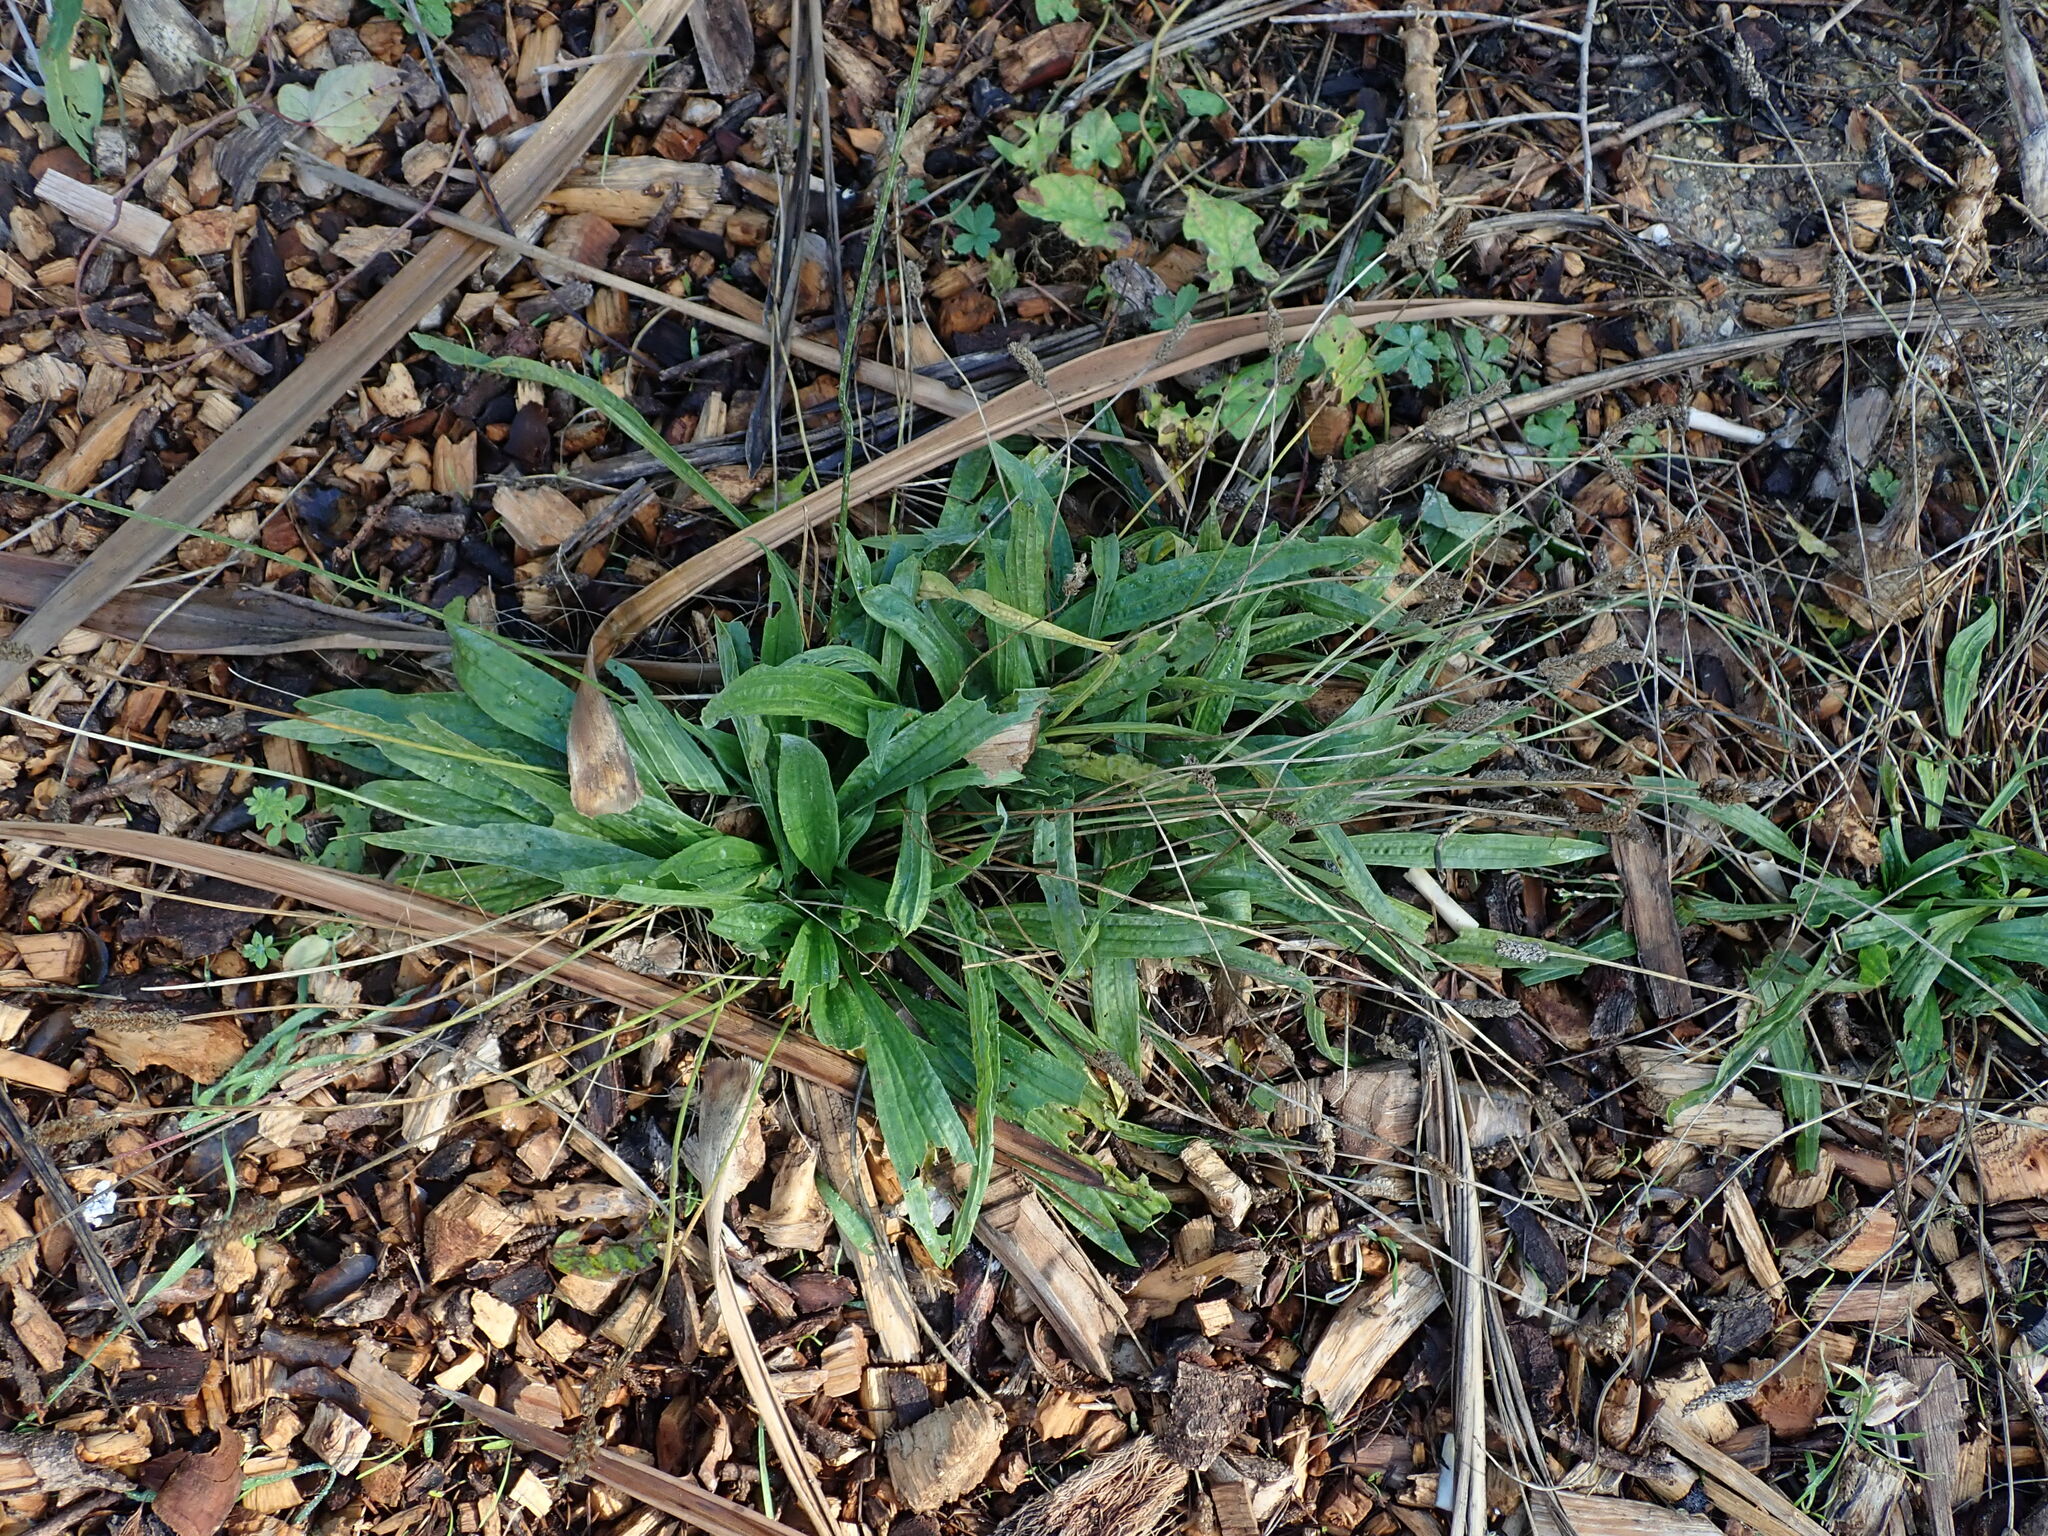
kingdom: Plantae
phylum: Tracheophyta
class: Magnoliopsida
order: Lamiales
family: Plantaginaceae
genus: Plantago
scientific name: Plantago lanceolata
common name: Ribwort plantain
